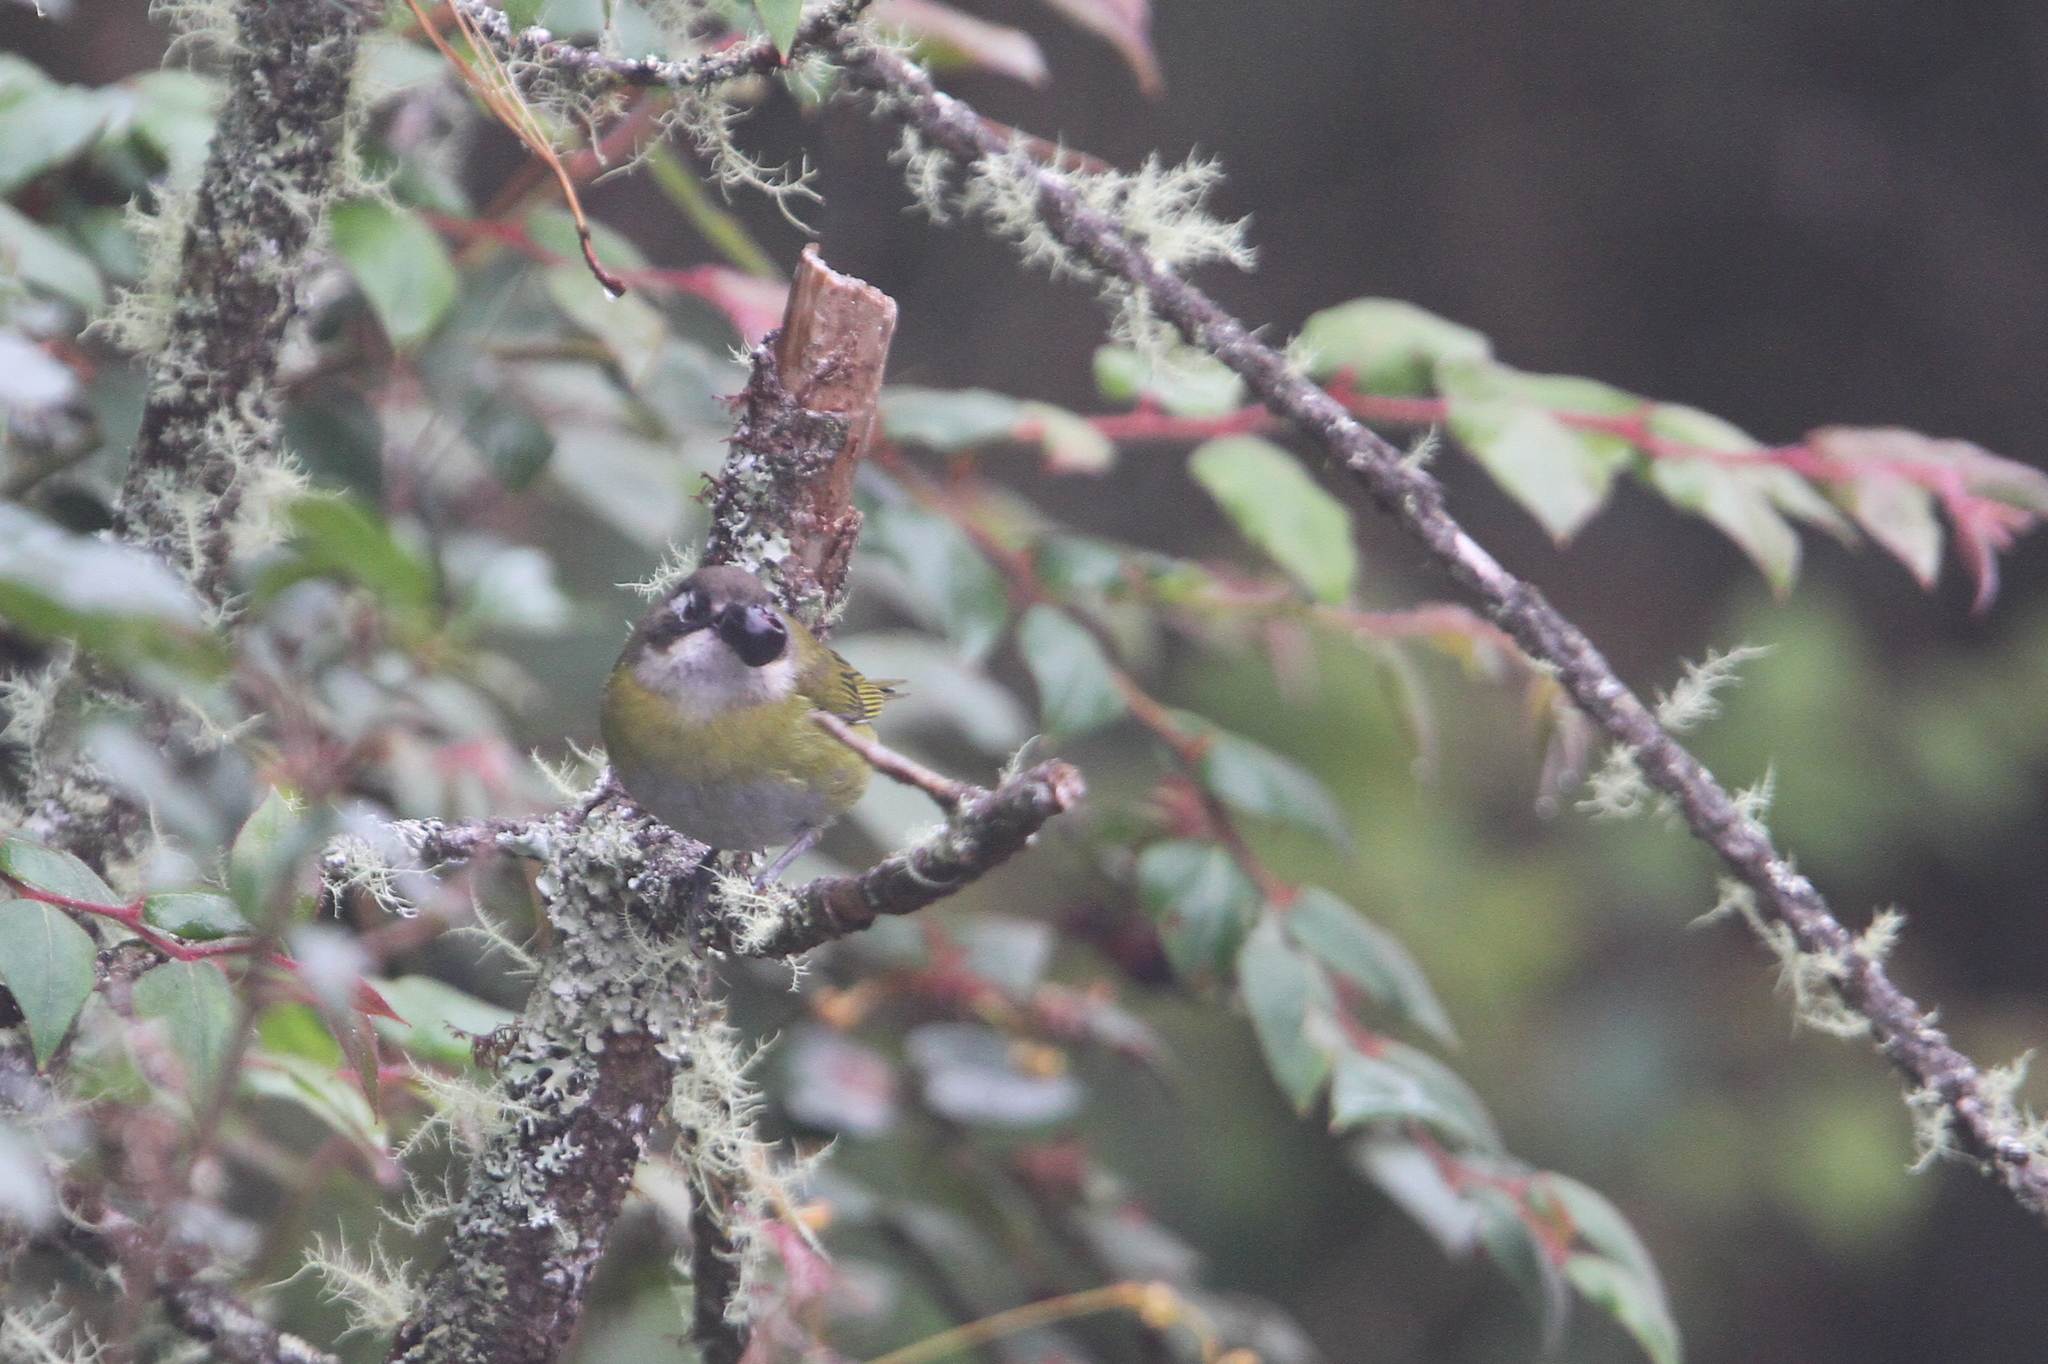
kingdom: Animalia
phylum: Chordata
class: Aves
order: Passeriformes
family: Passerellidae
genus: Chlorospingus
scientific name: Chlorospingus flavopectus
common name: Common chlorospingus
